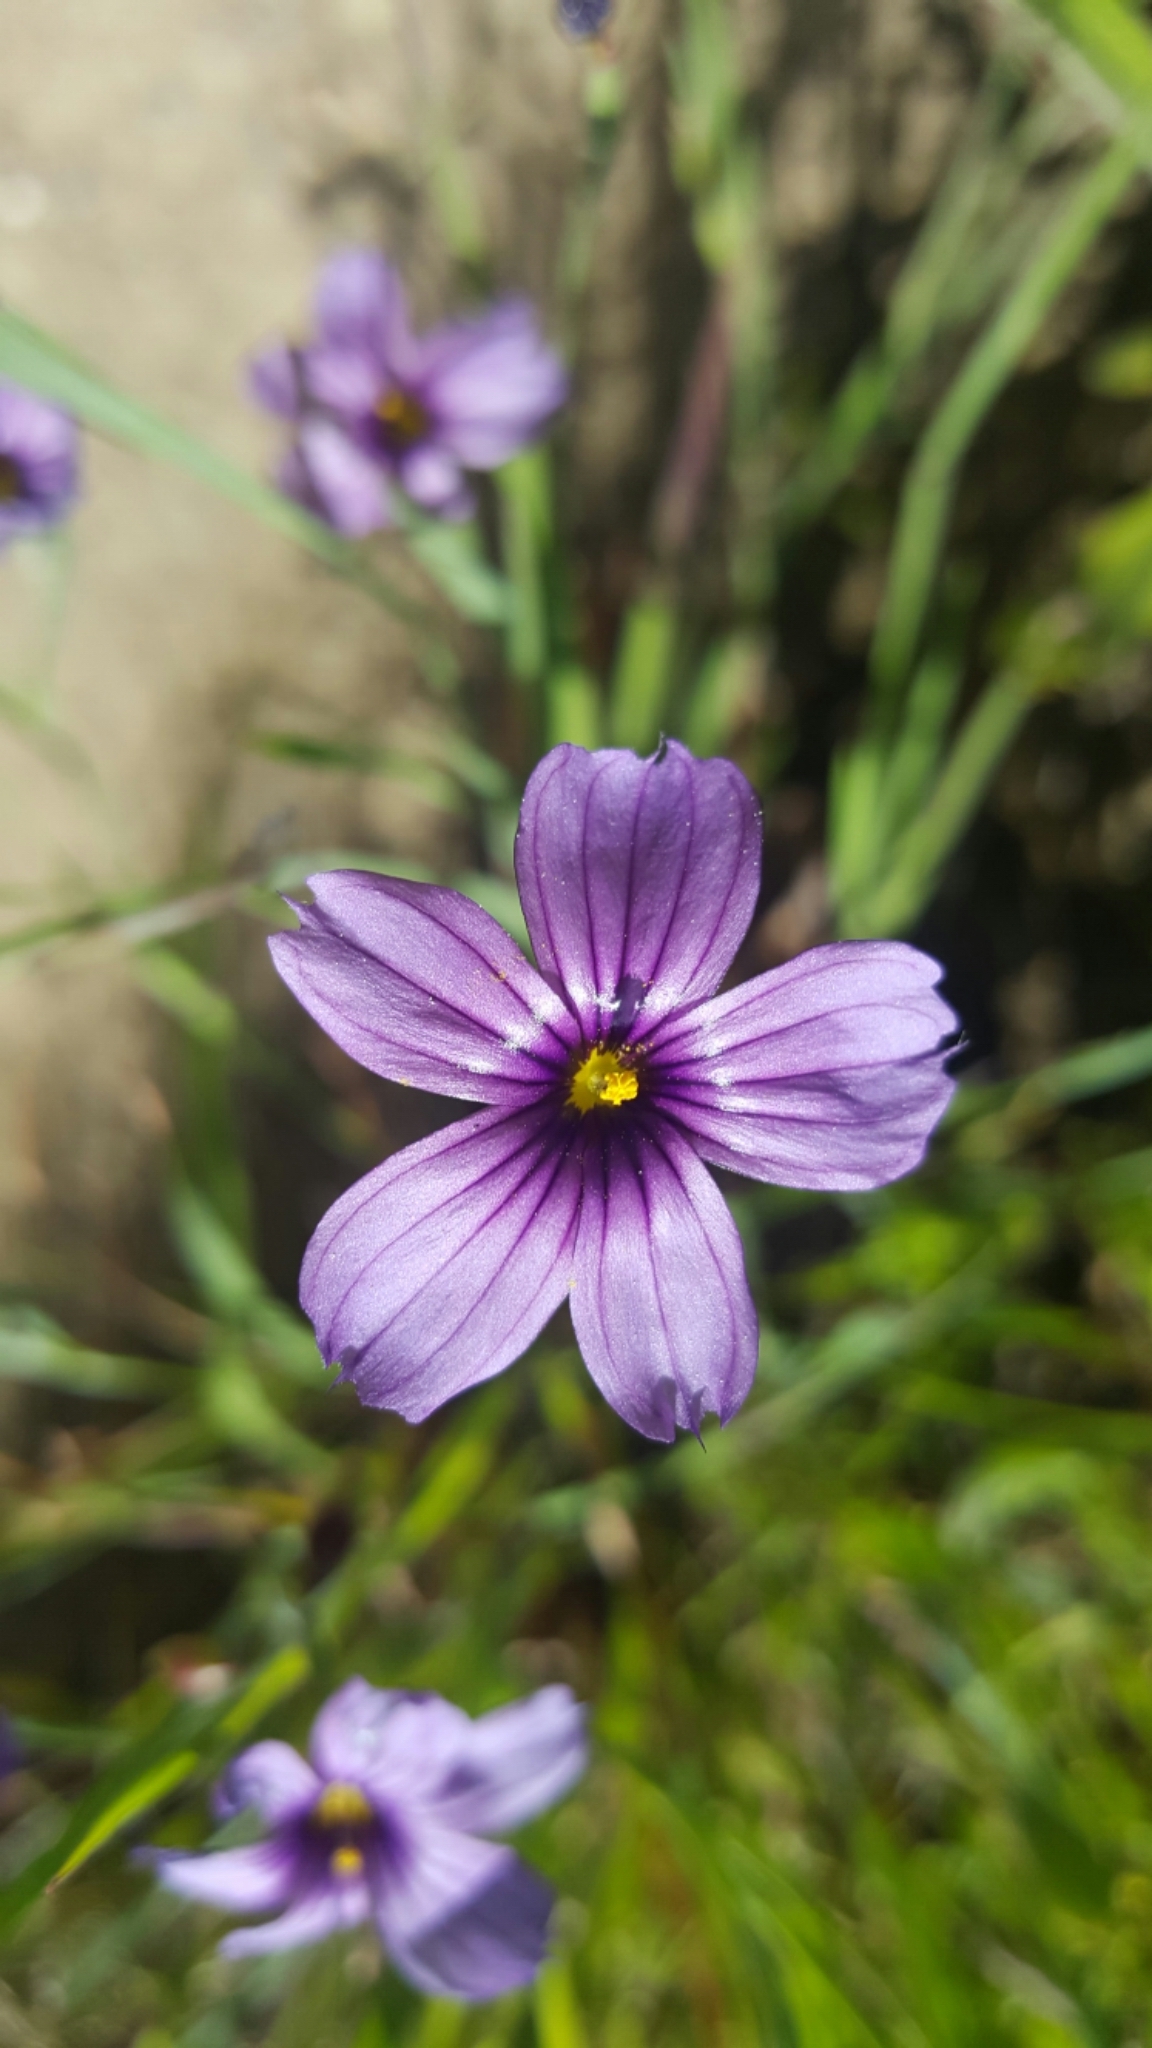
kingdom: Plantae
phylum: Tracheophyta
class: Liliopsida
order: Asparagales
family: Iridaceae
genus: Sisyrinchium
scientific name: Sisyrinchium bellum
